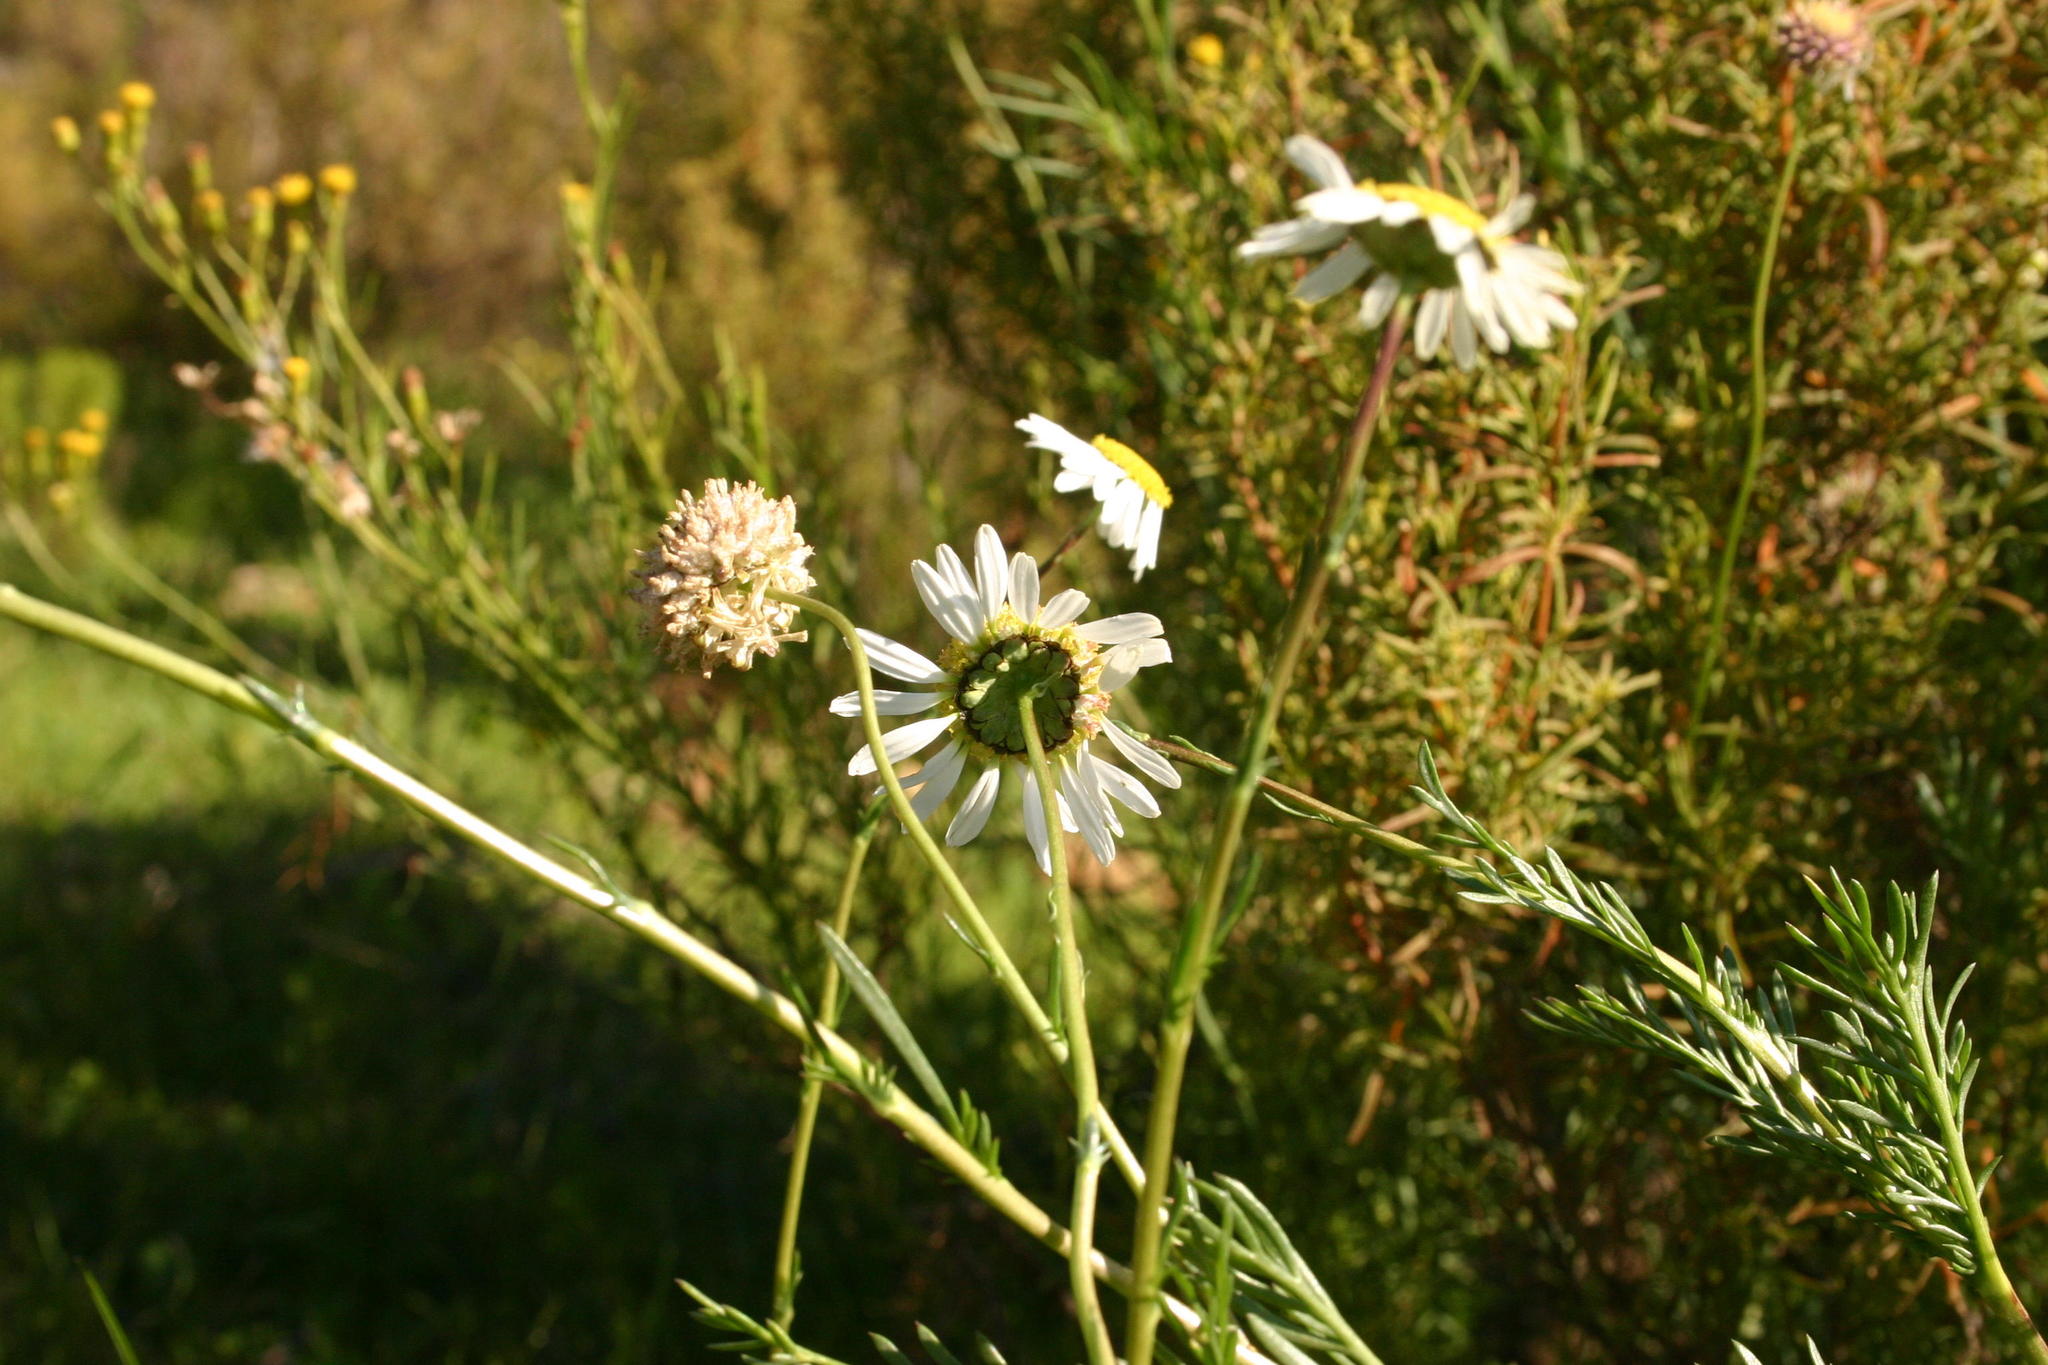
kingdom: Plantae
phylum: Tracheophyta
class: Magnoliopsida
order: Asterales
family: Asteraceae
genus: Lasiospermum
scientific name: Lasiospermum bipinnatum
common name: Cocoonhead
